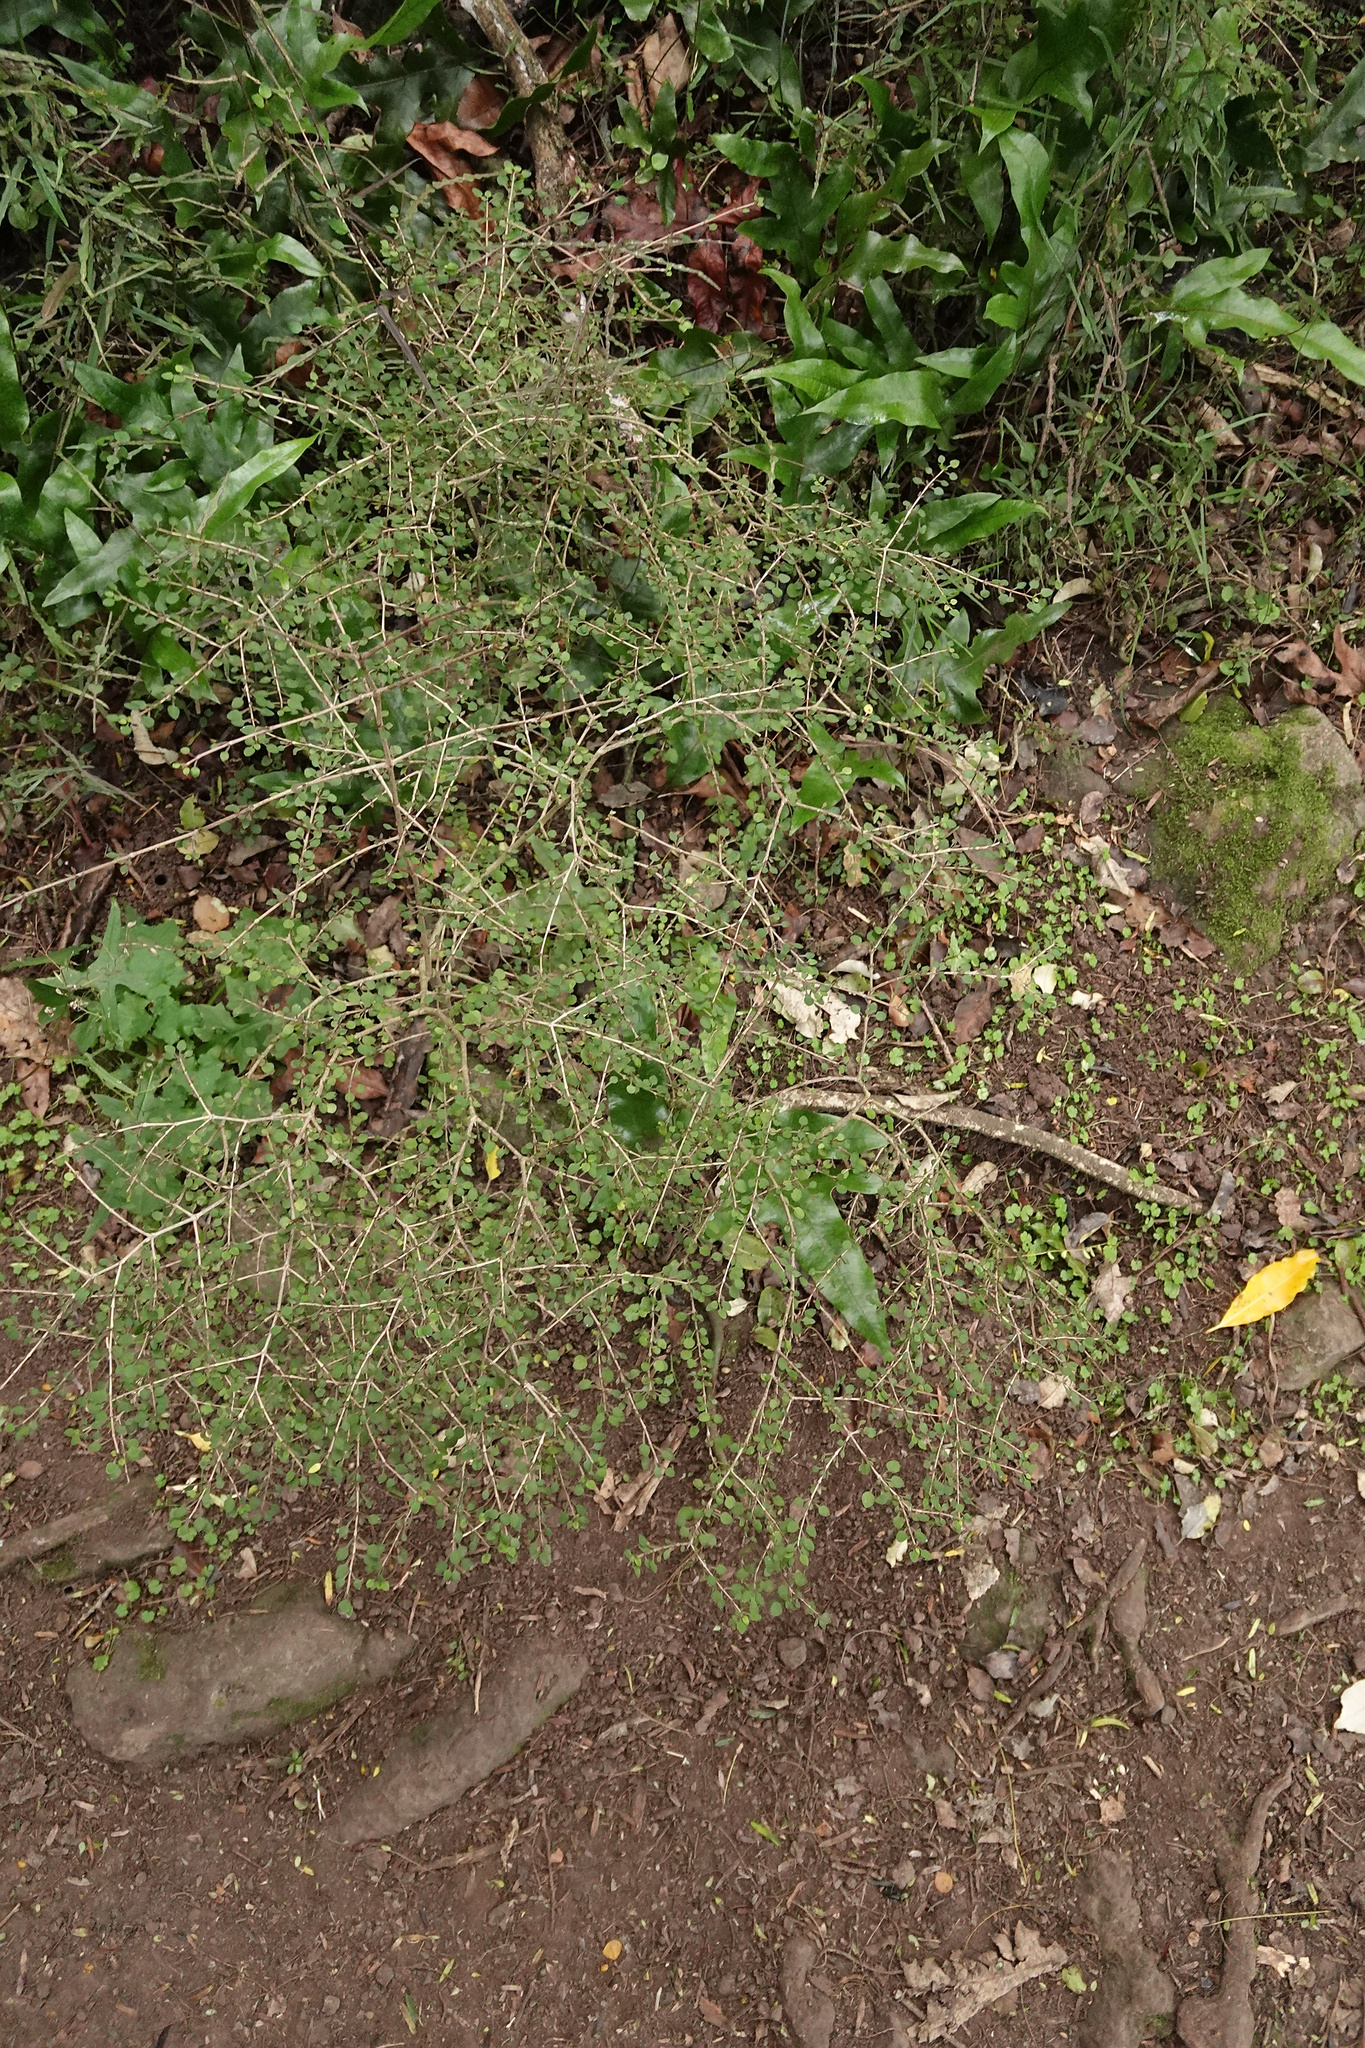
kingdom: Plantae
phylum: Tracheophyta
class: Magnoliopsida
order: Gentianales
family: Rubiaceae
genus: Coprosma
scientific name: Coprosma virescens
